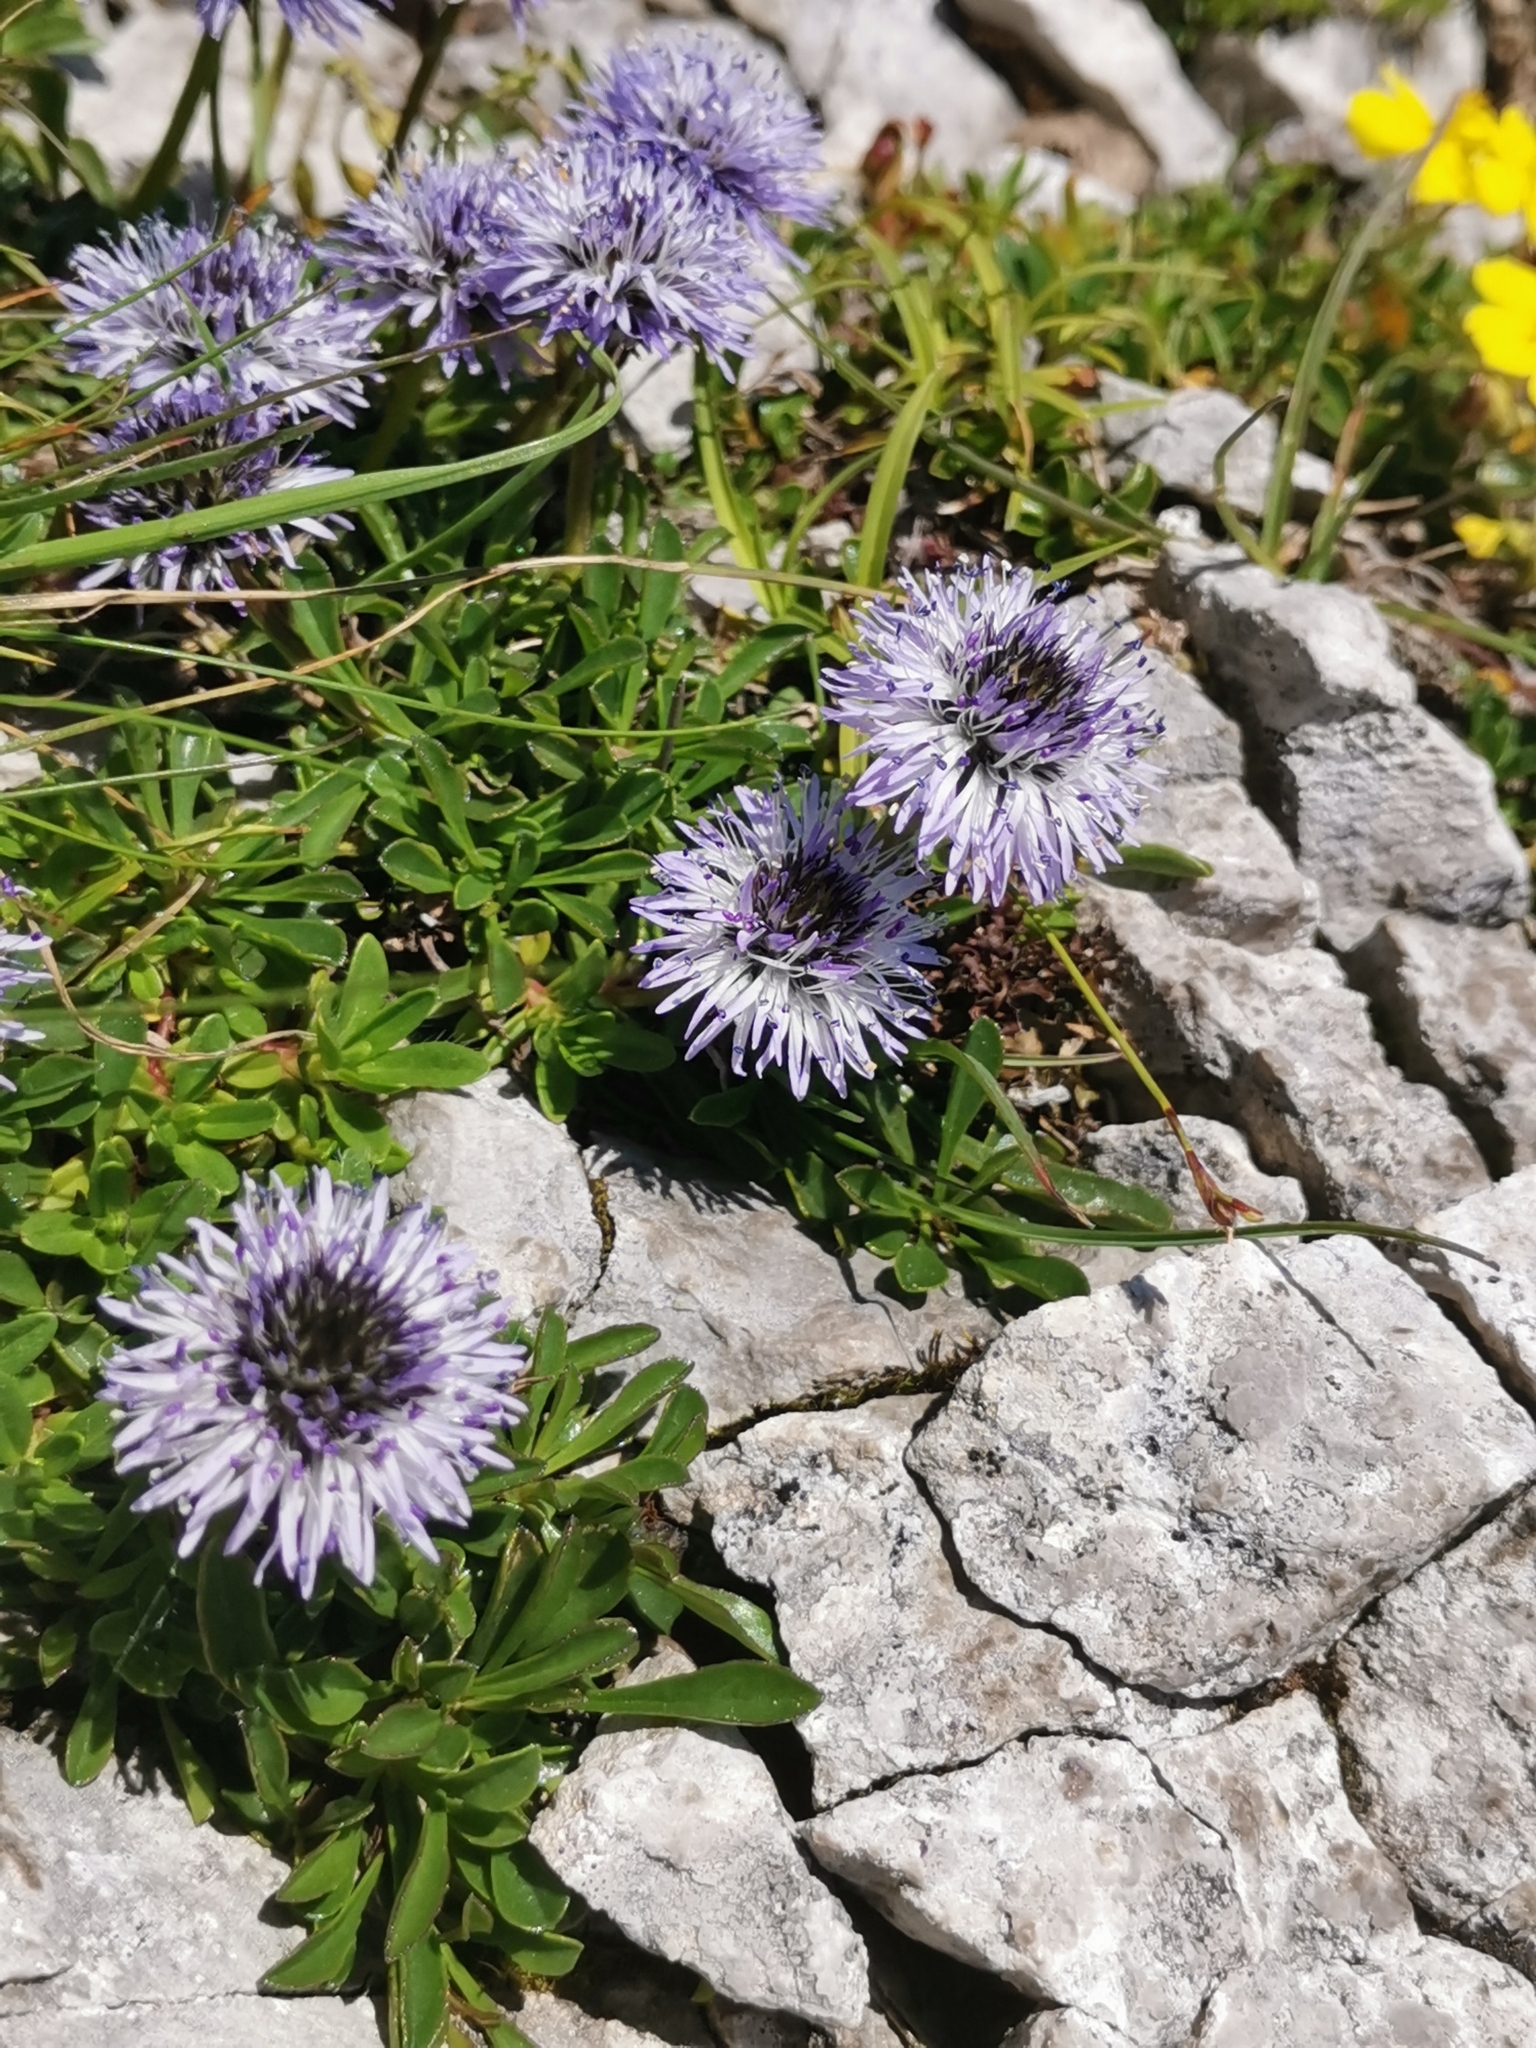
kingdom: Plantae
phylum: Tracheophyta
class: Magnoliopsida
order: Lamiales
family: Plantaginaceae
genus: Globularia
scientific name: Globularia cordifolia
